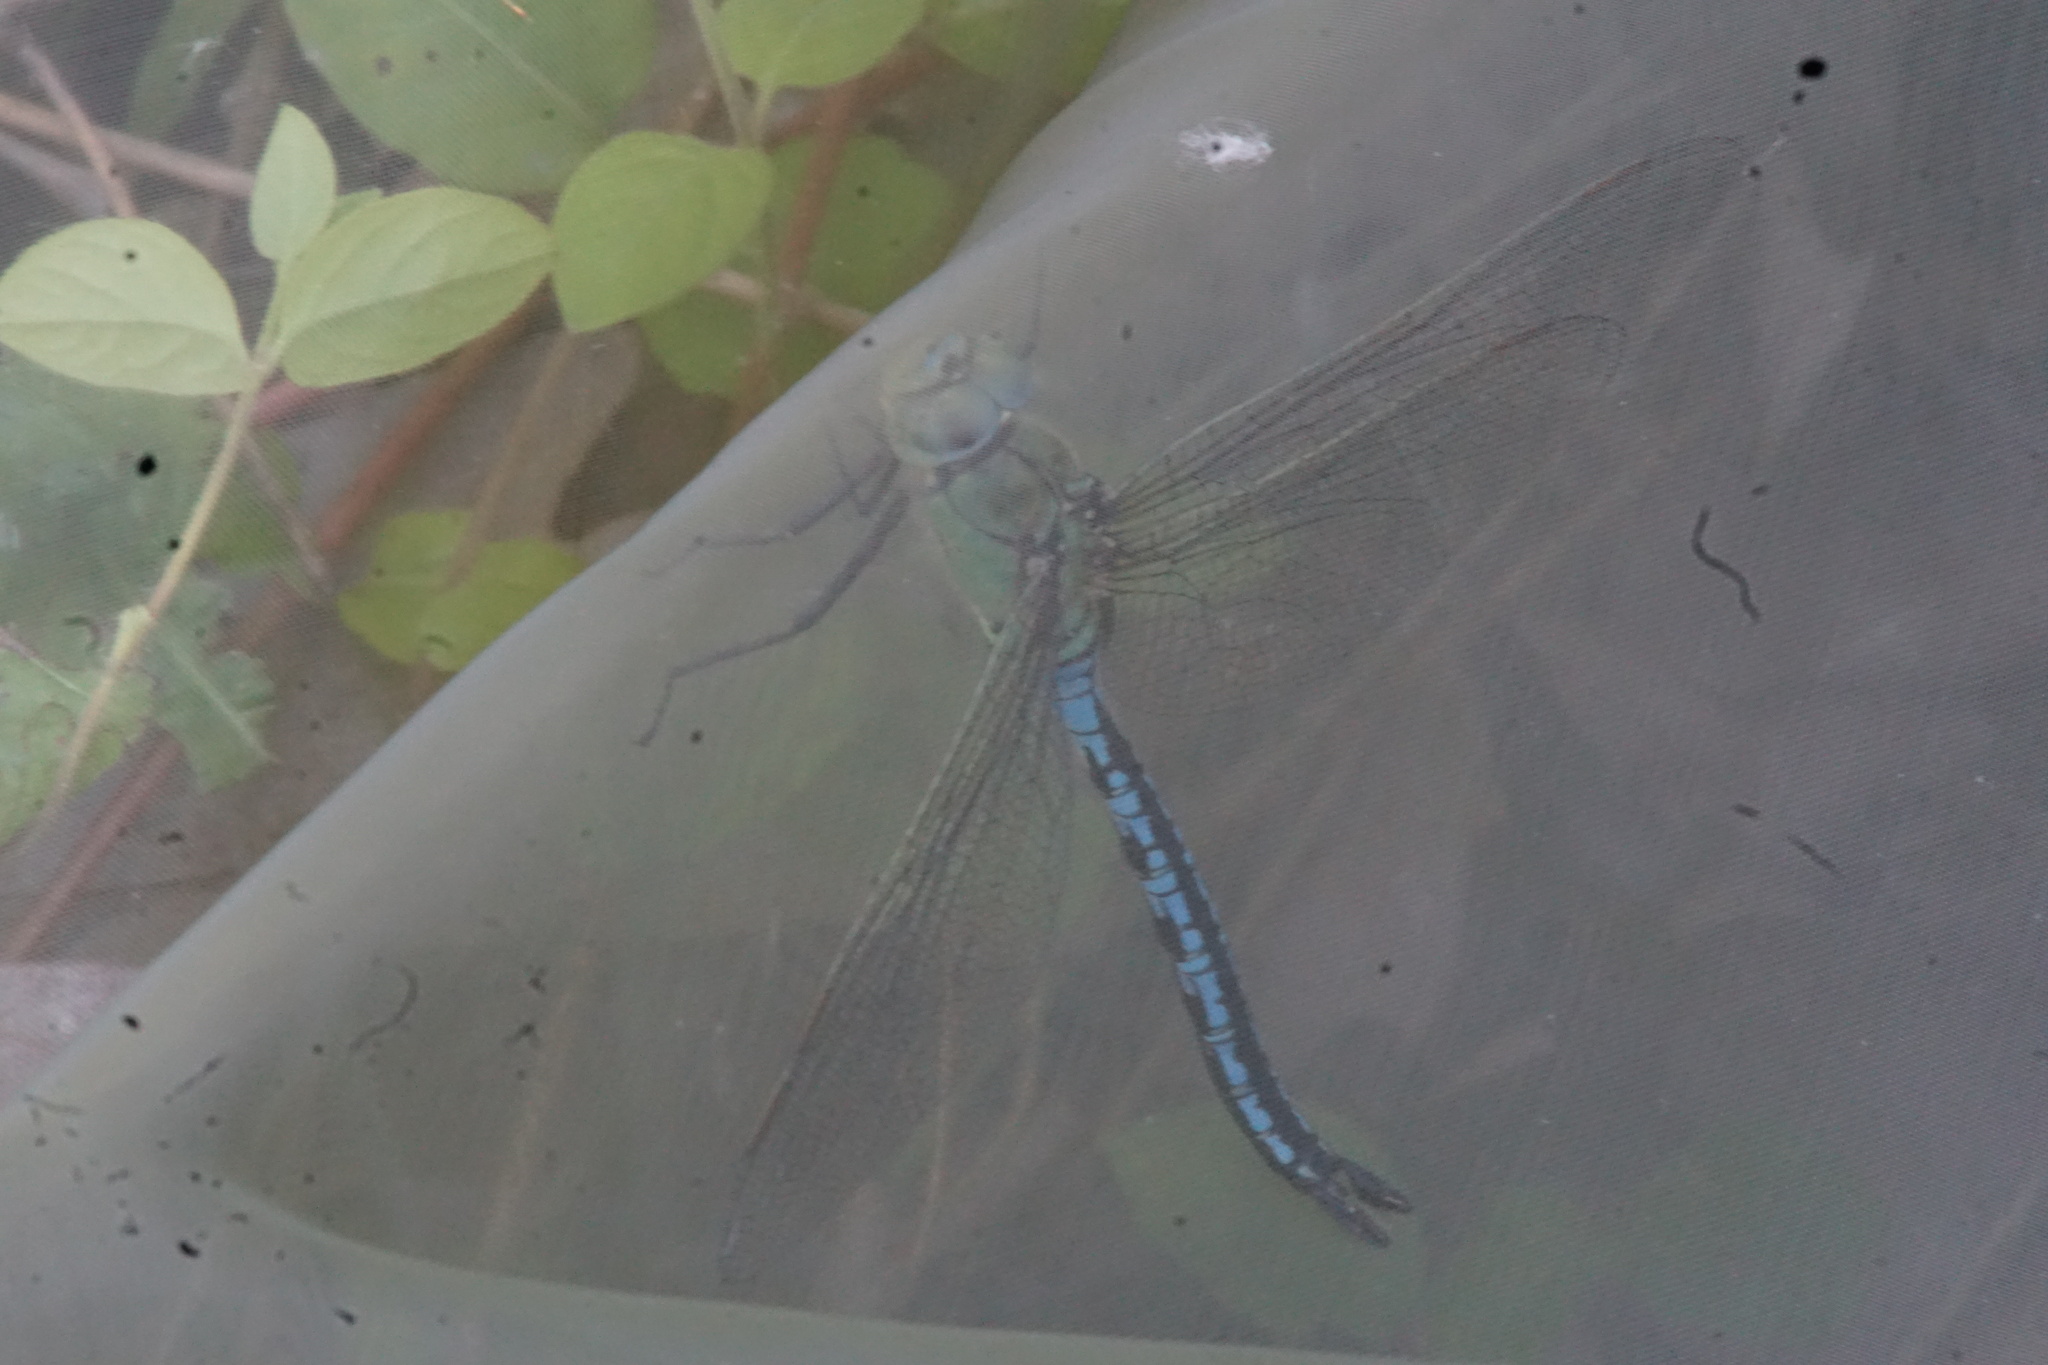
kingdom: Animalia
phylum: Arthropoda
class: Insecta
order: Odonata
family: Aeshnidae
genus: Anax
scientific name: Anax imperator
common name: Emperor dragonfly
